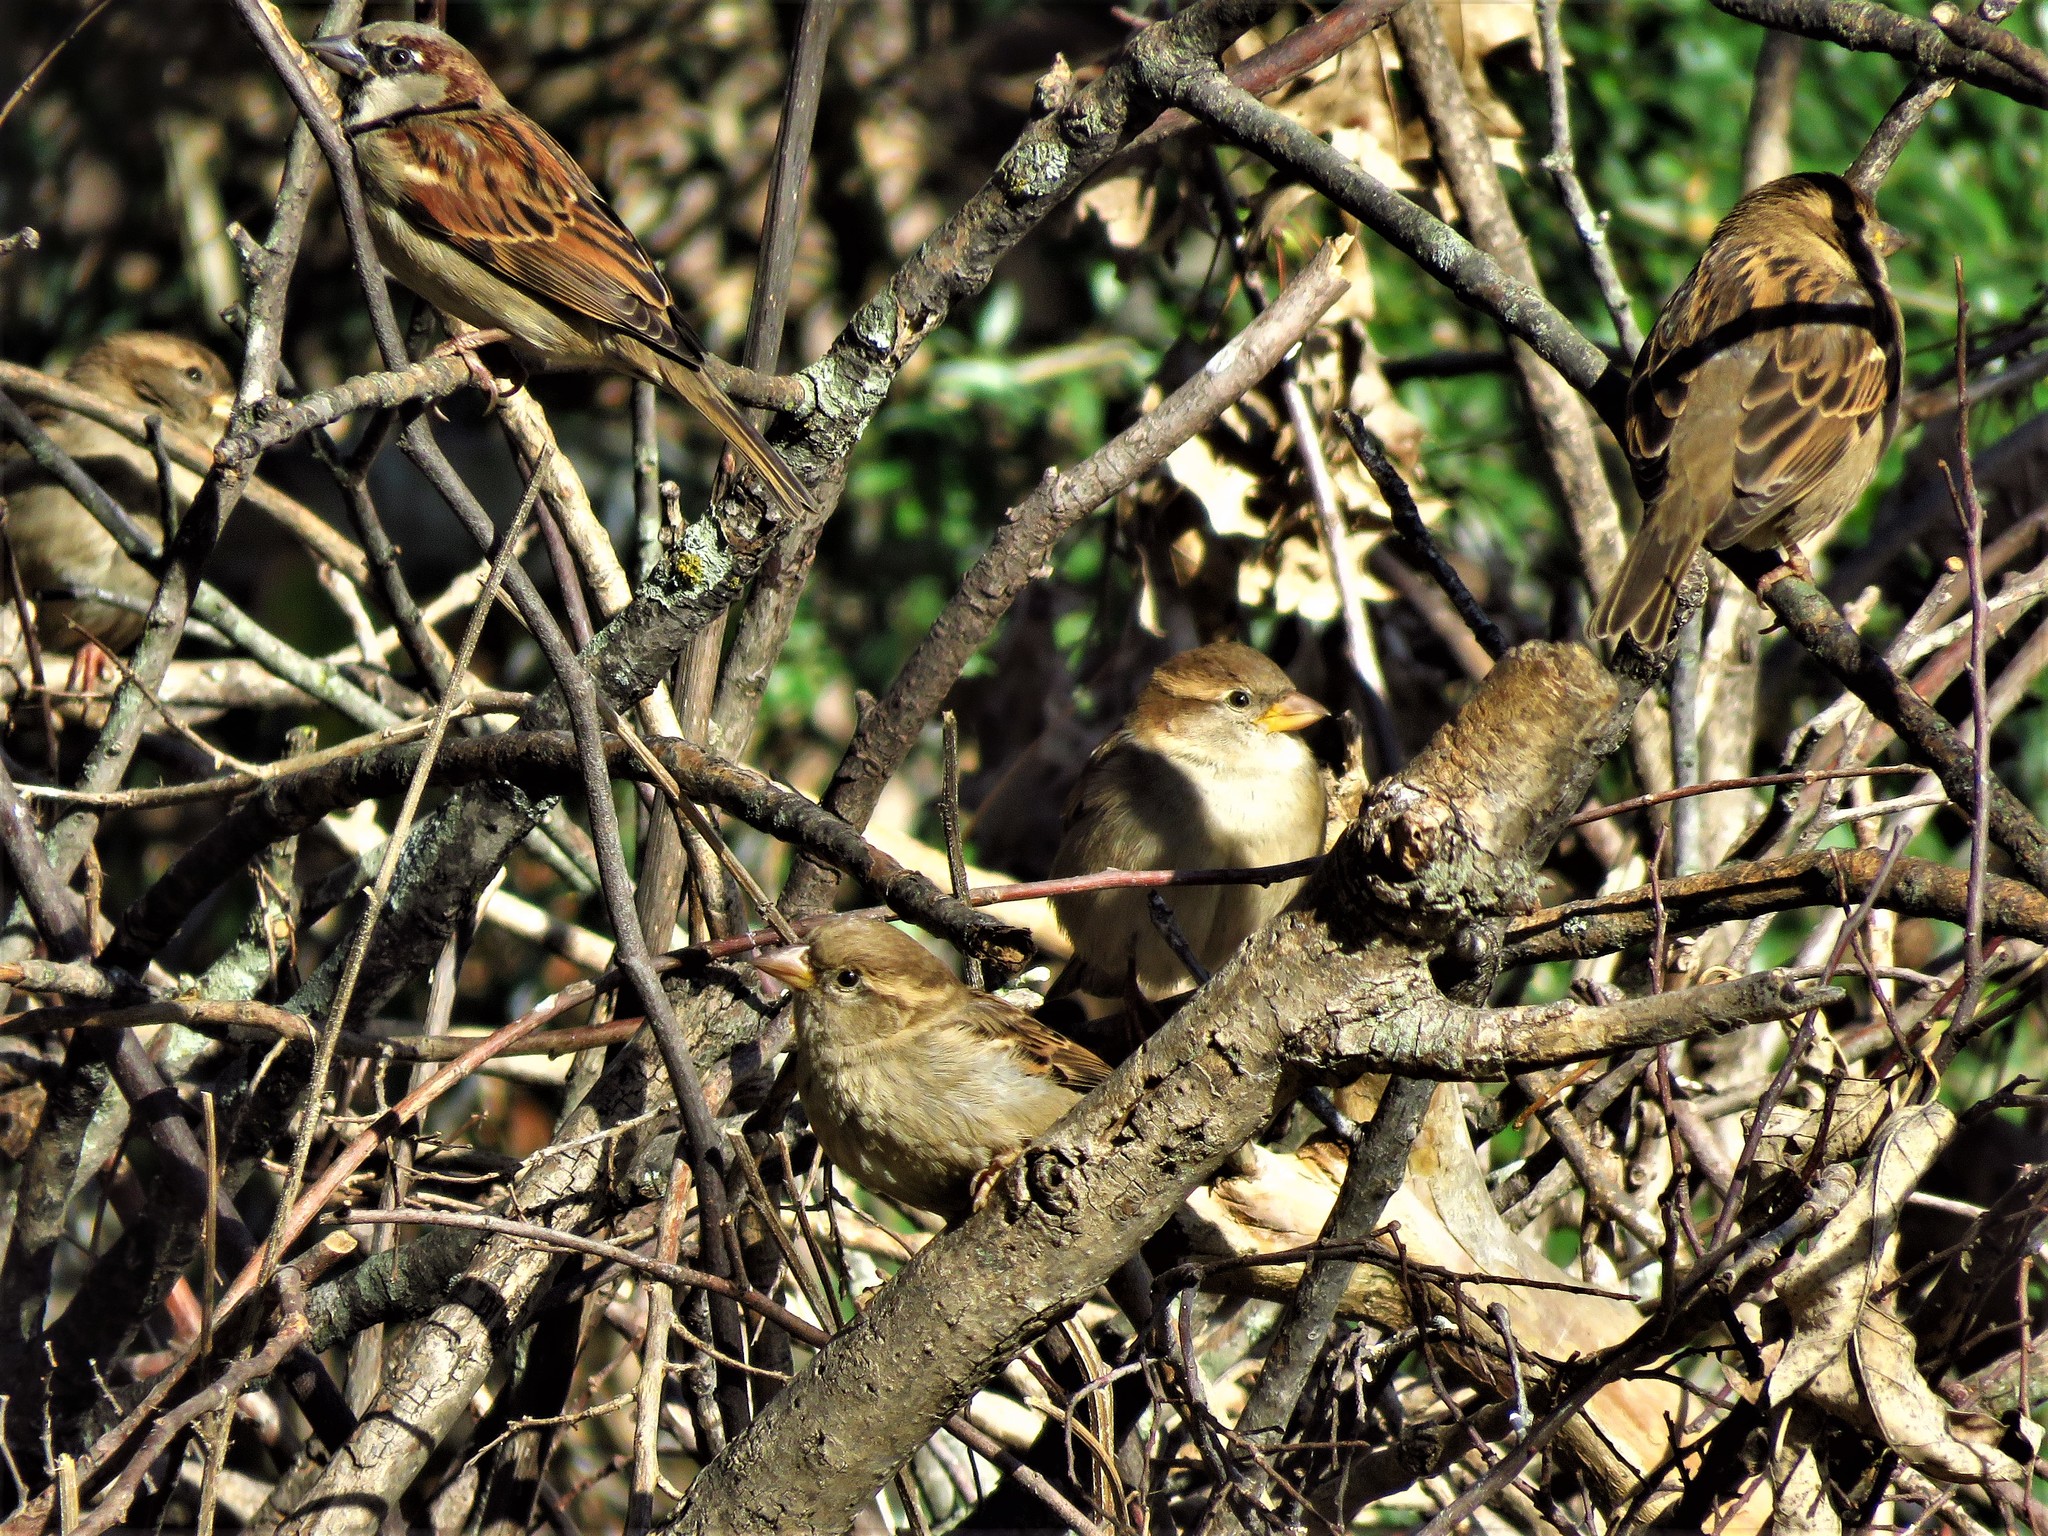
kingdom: Animalia
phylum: Chordata
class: Aves
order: Passeriformes
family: Passeridae
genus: Passer
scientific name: Passer domesticus
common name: House sparrow
